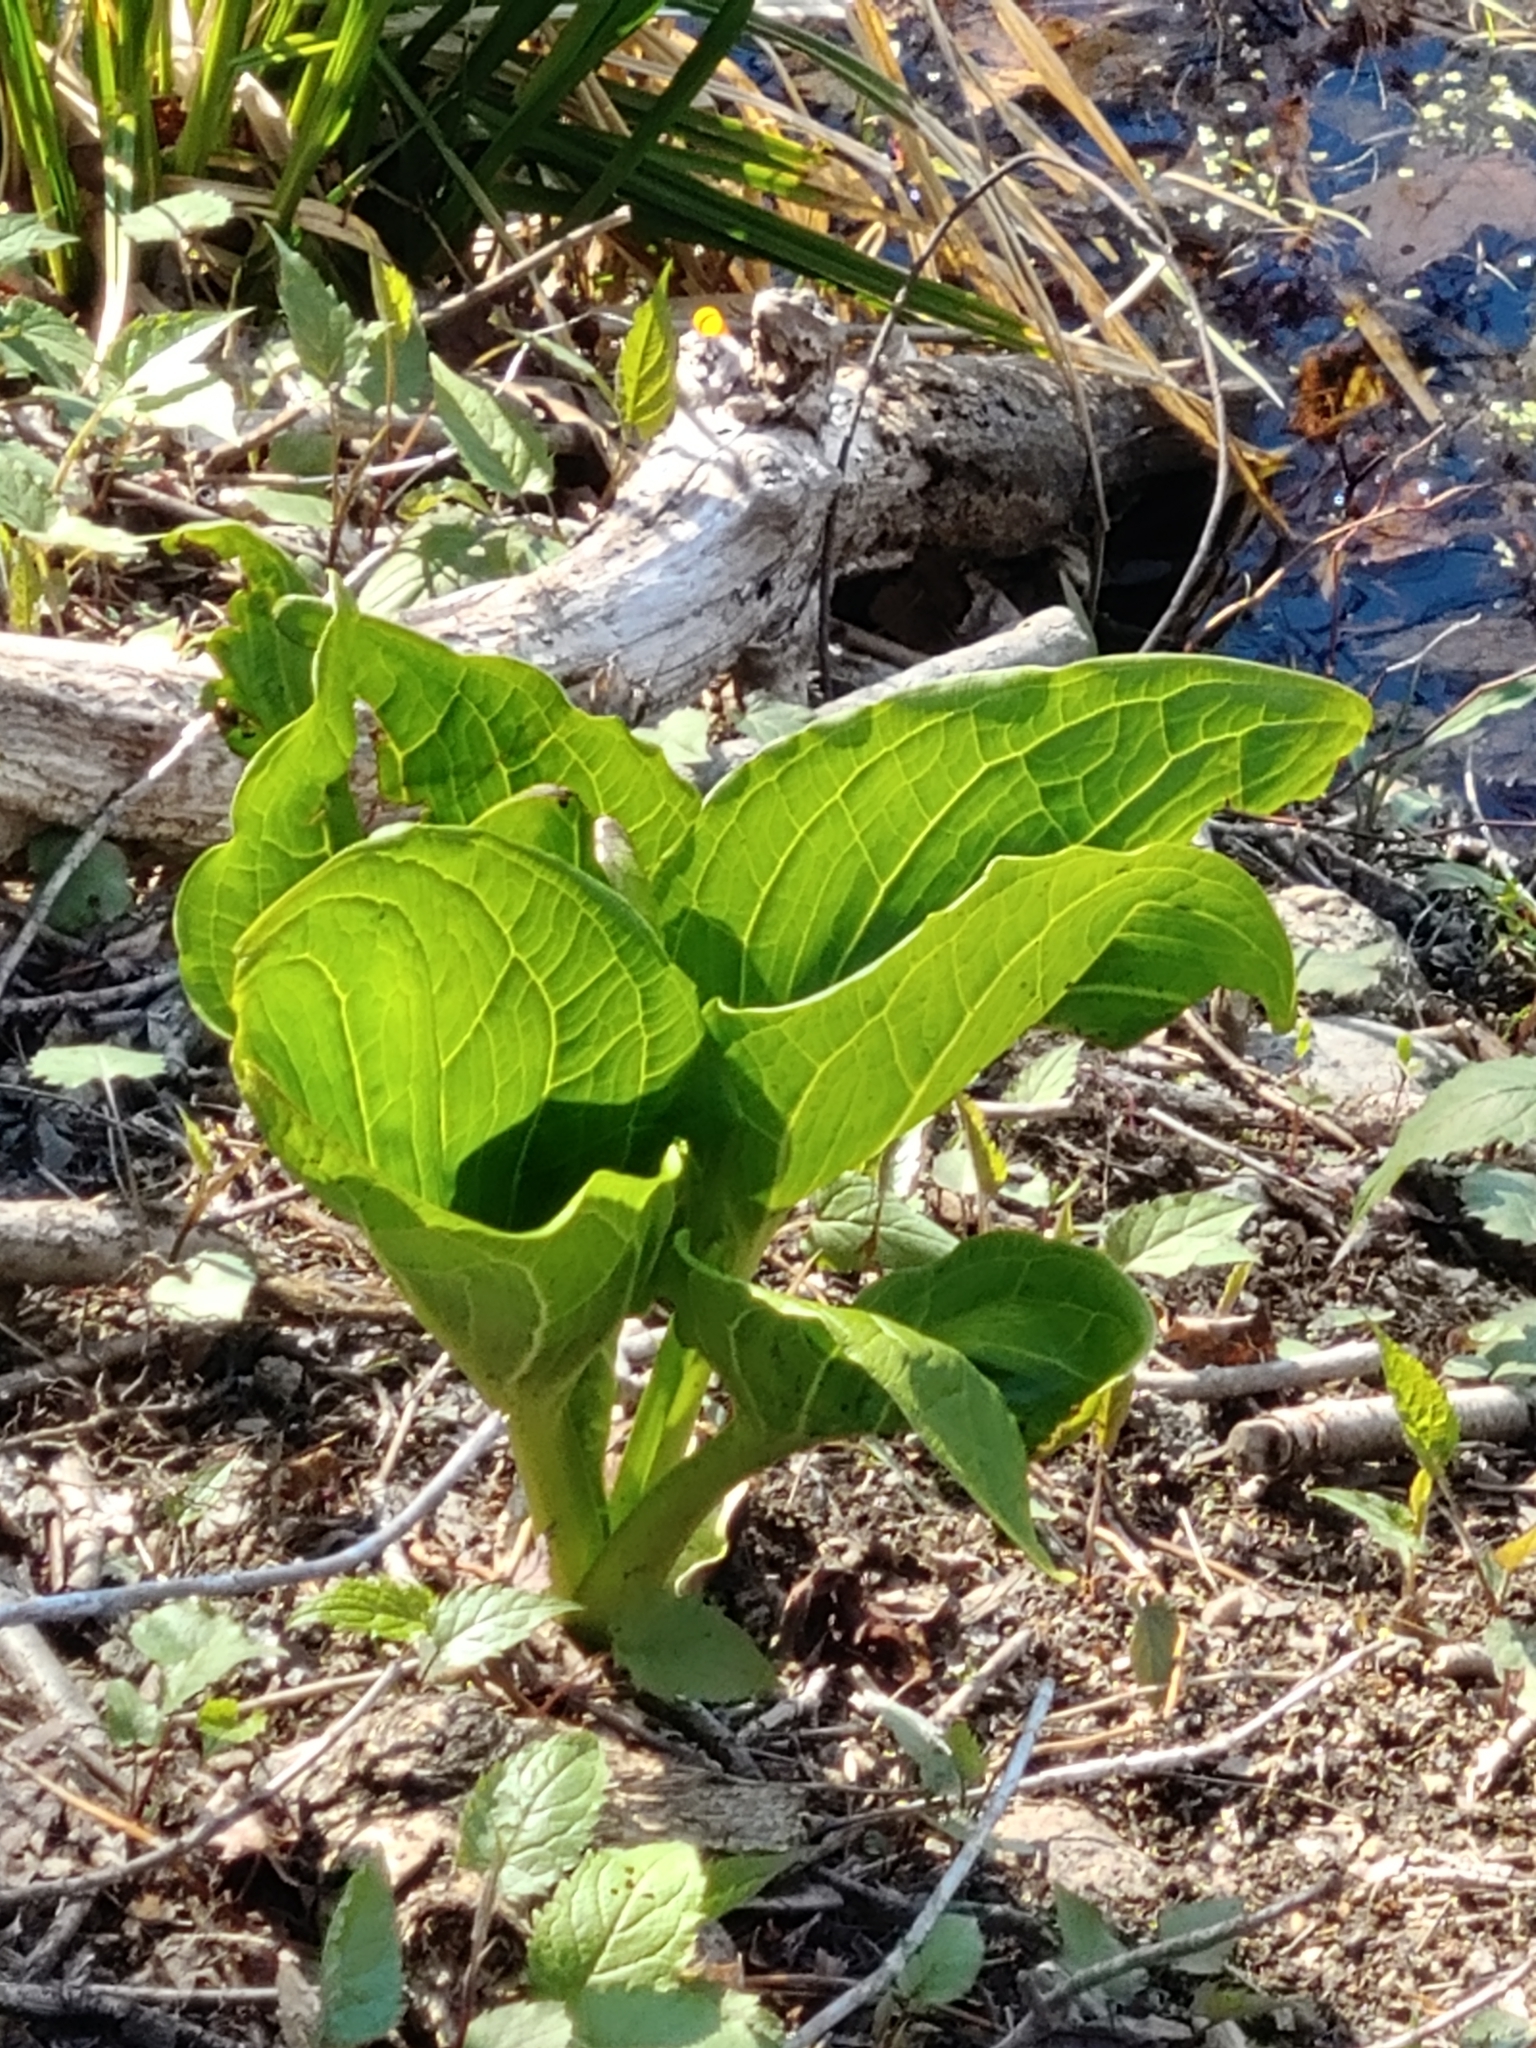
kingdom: Plantae
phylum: Tracheophyta
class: Liliopsida
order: Alismatales
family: Araceae
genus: Symplocarpus
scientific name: Symplocarpus foetidus
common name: Eastern skunk cabbage
